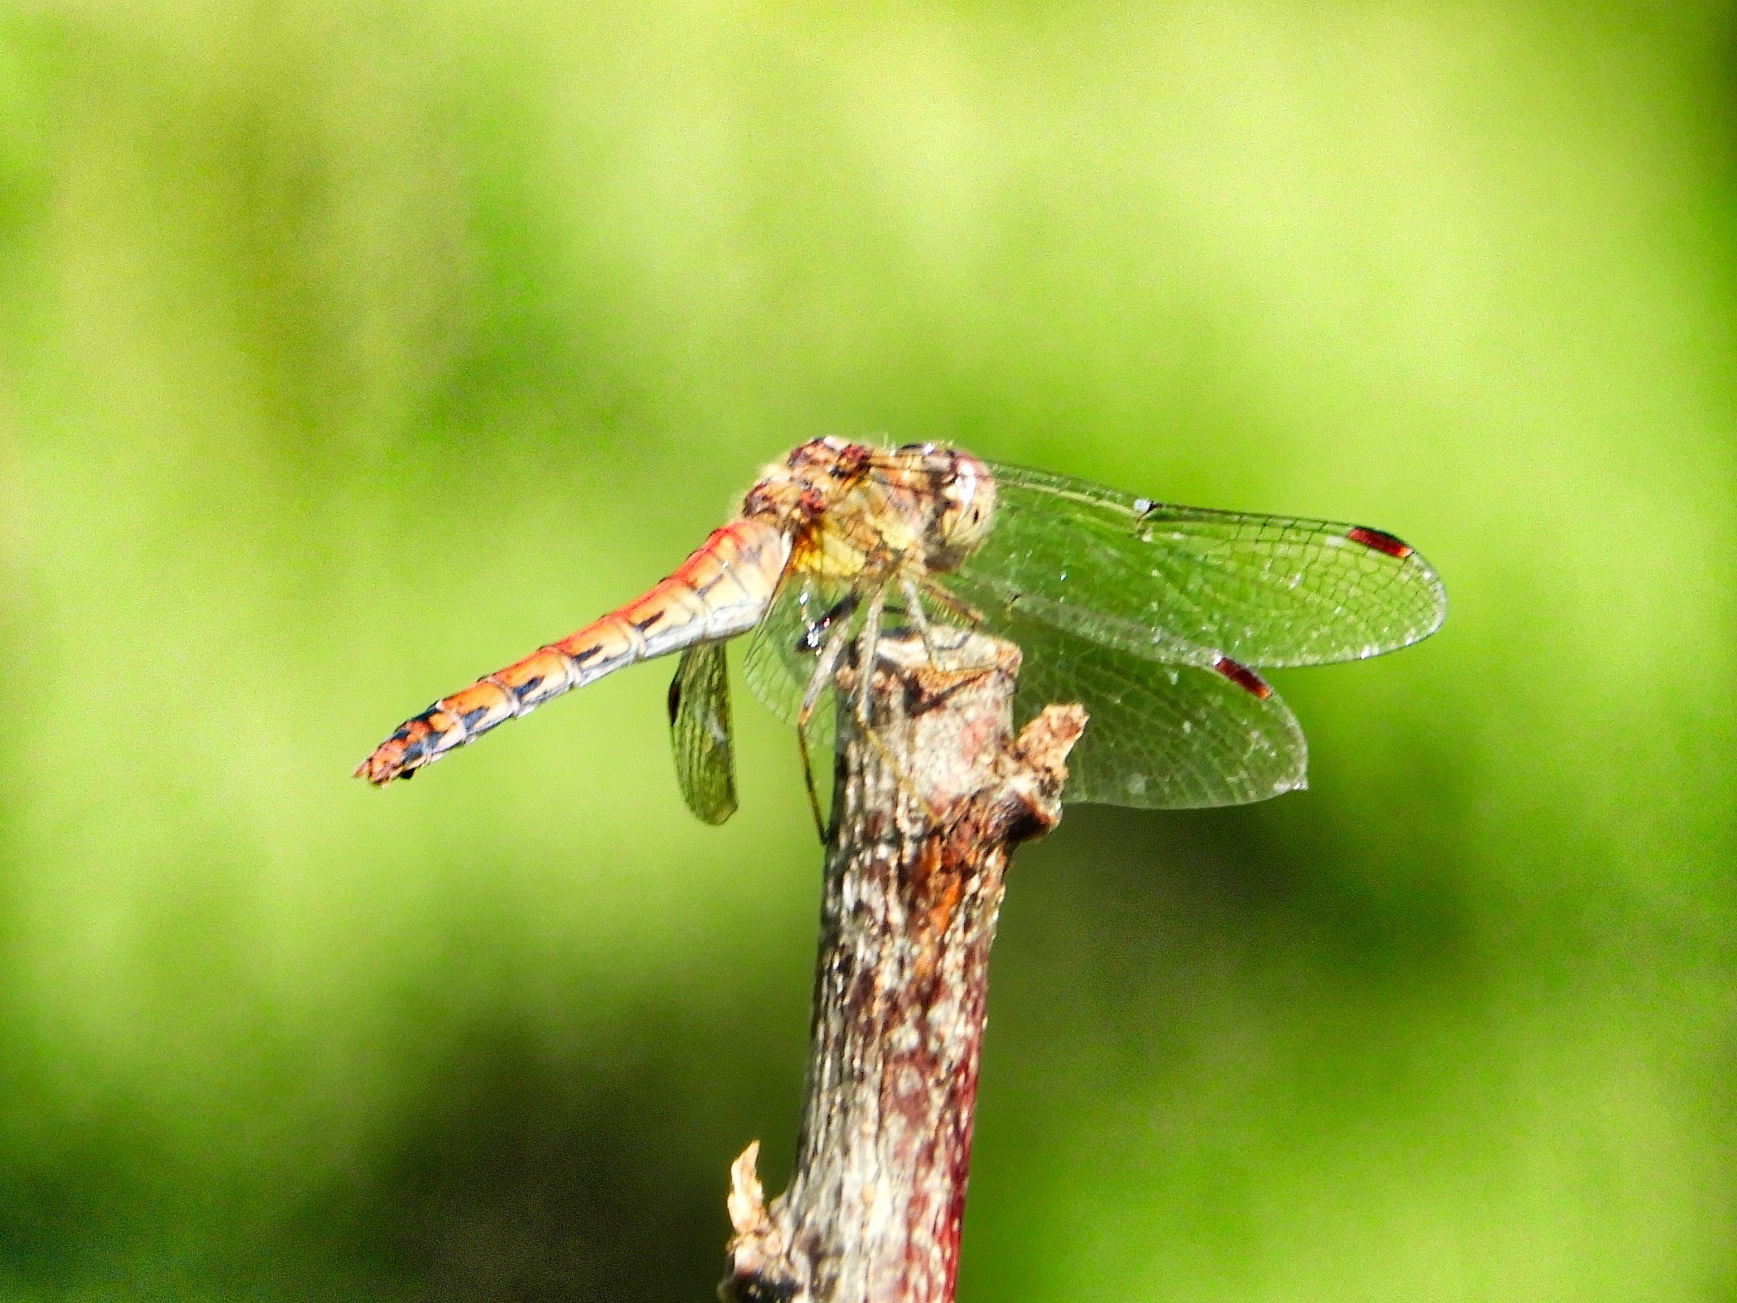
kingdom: Animalia
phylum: Arthropoda
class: Insecta
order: Odonata
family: Libellulidae
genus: Sympetrum
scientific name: Sympetrum striolatum
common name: Common darter
